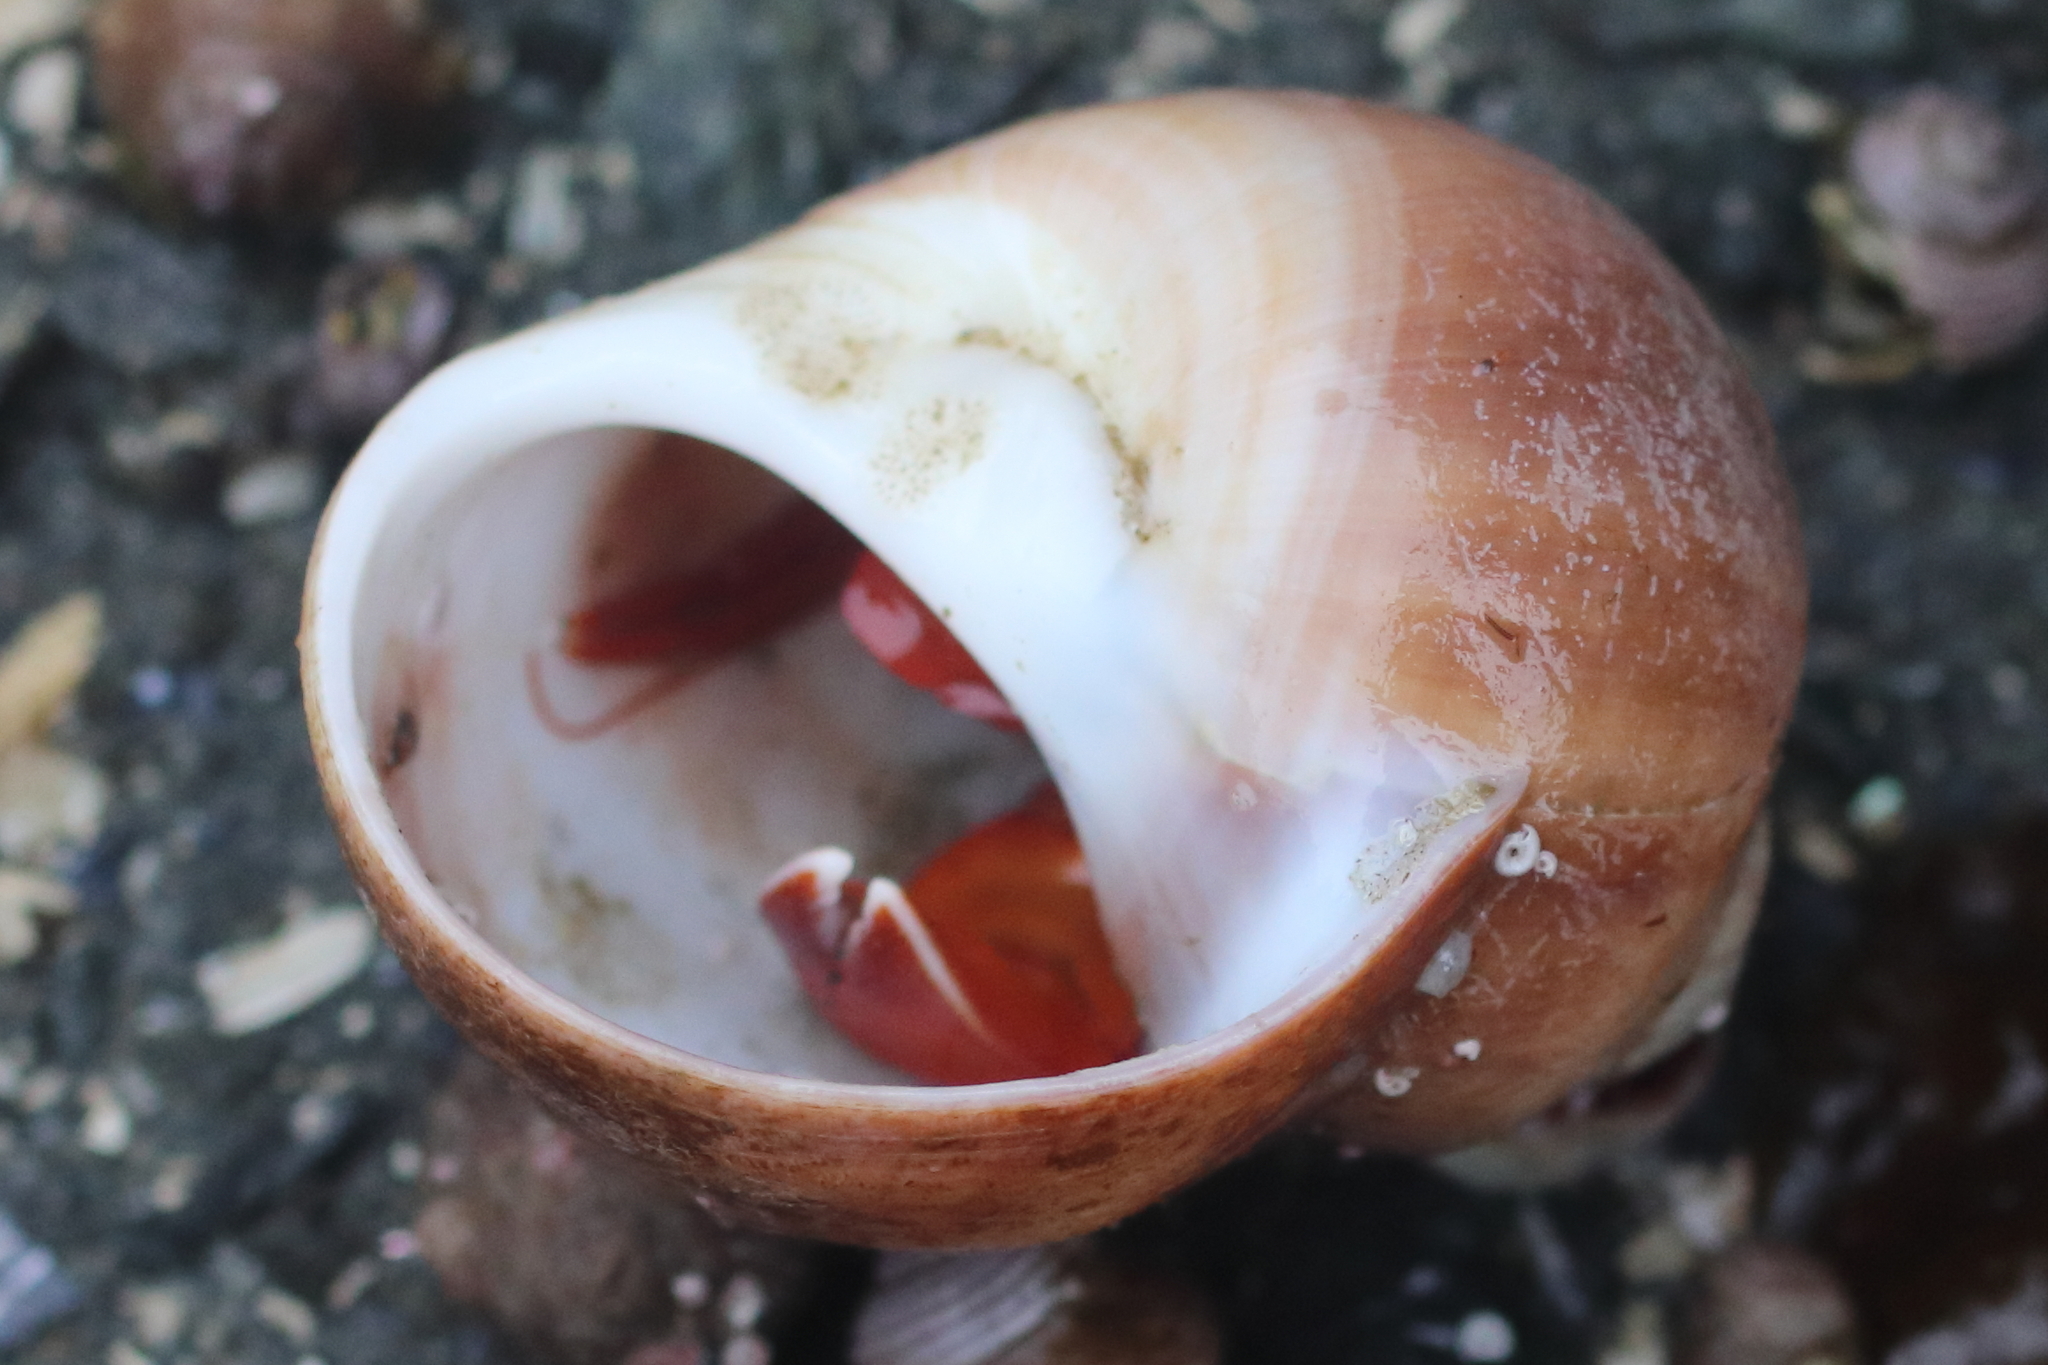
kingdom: Animalia
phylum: Arthropoda
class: Malacostraca
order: Decapoda
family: Paguridae
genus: Elassochirus
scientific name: Elassochirus gilli
